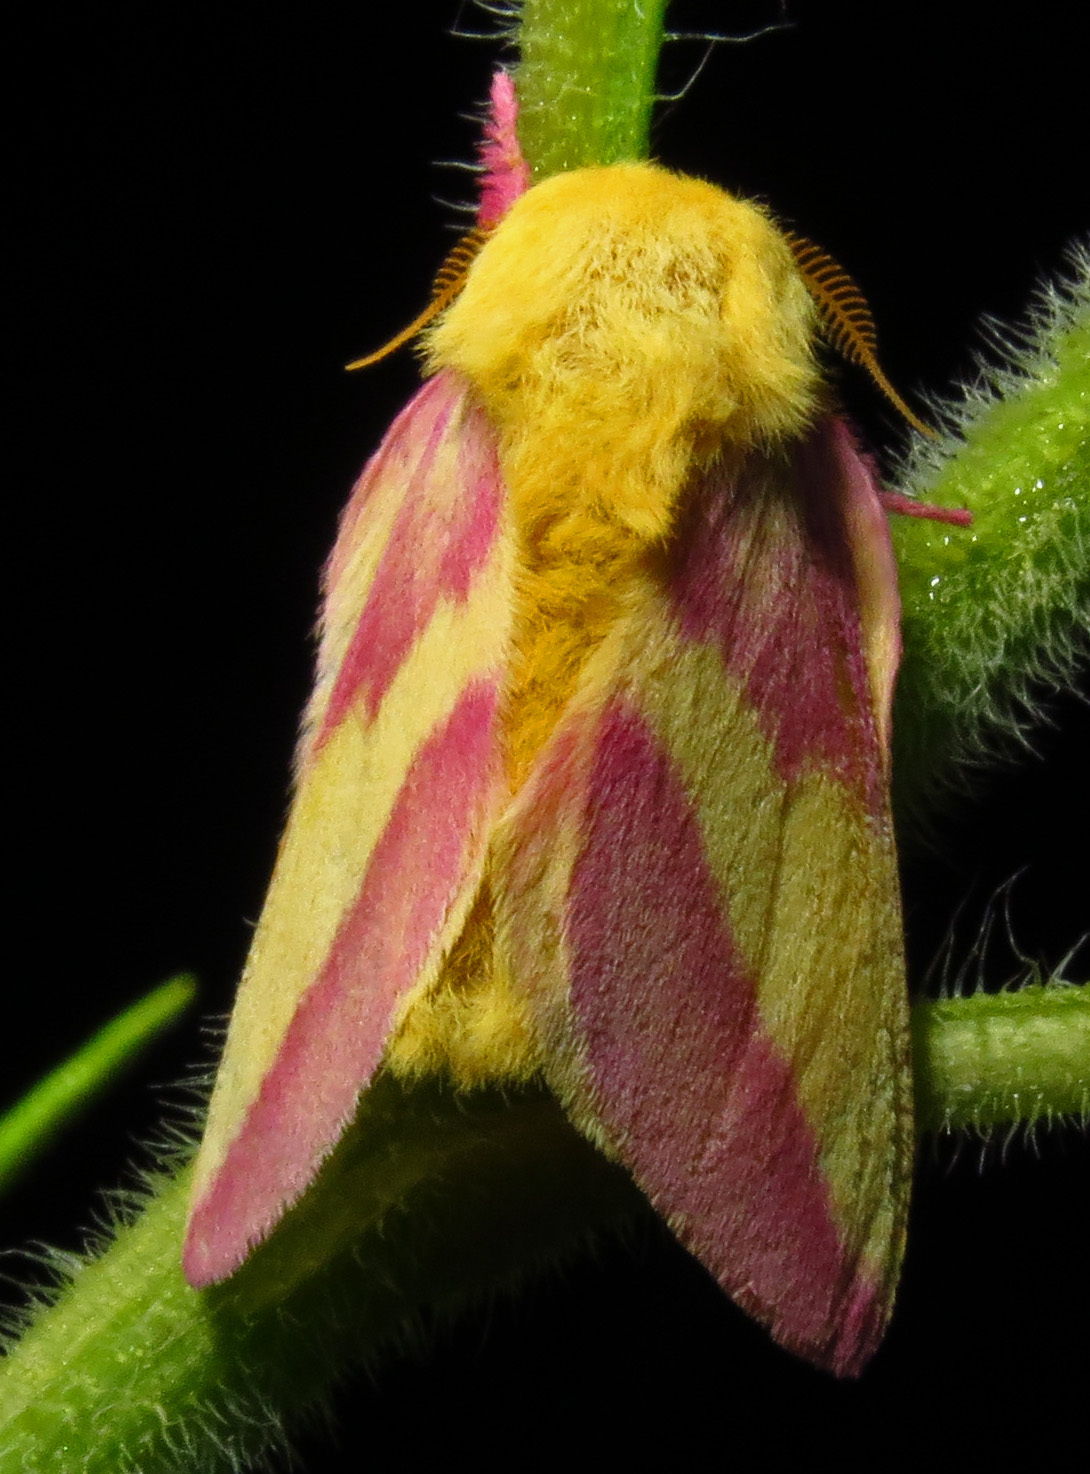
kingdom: Animalia
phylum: Arthropoda
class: Insecta
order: Lepidoptera
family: Saturniidae
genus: Dryocampa
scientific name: Dryocampa rubicunda
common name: Rosy maple moth
